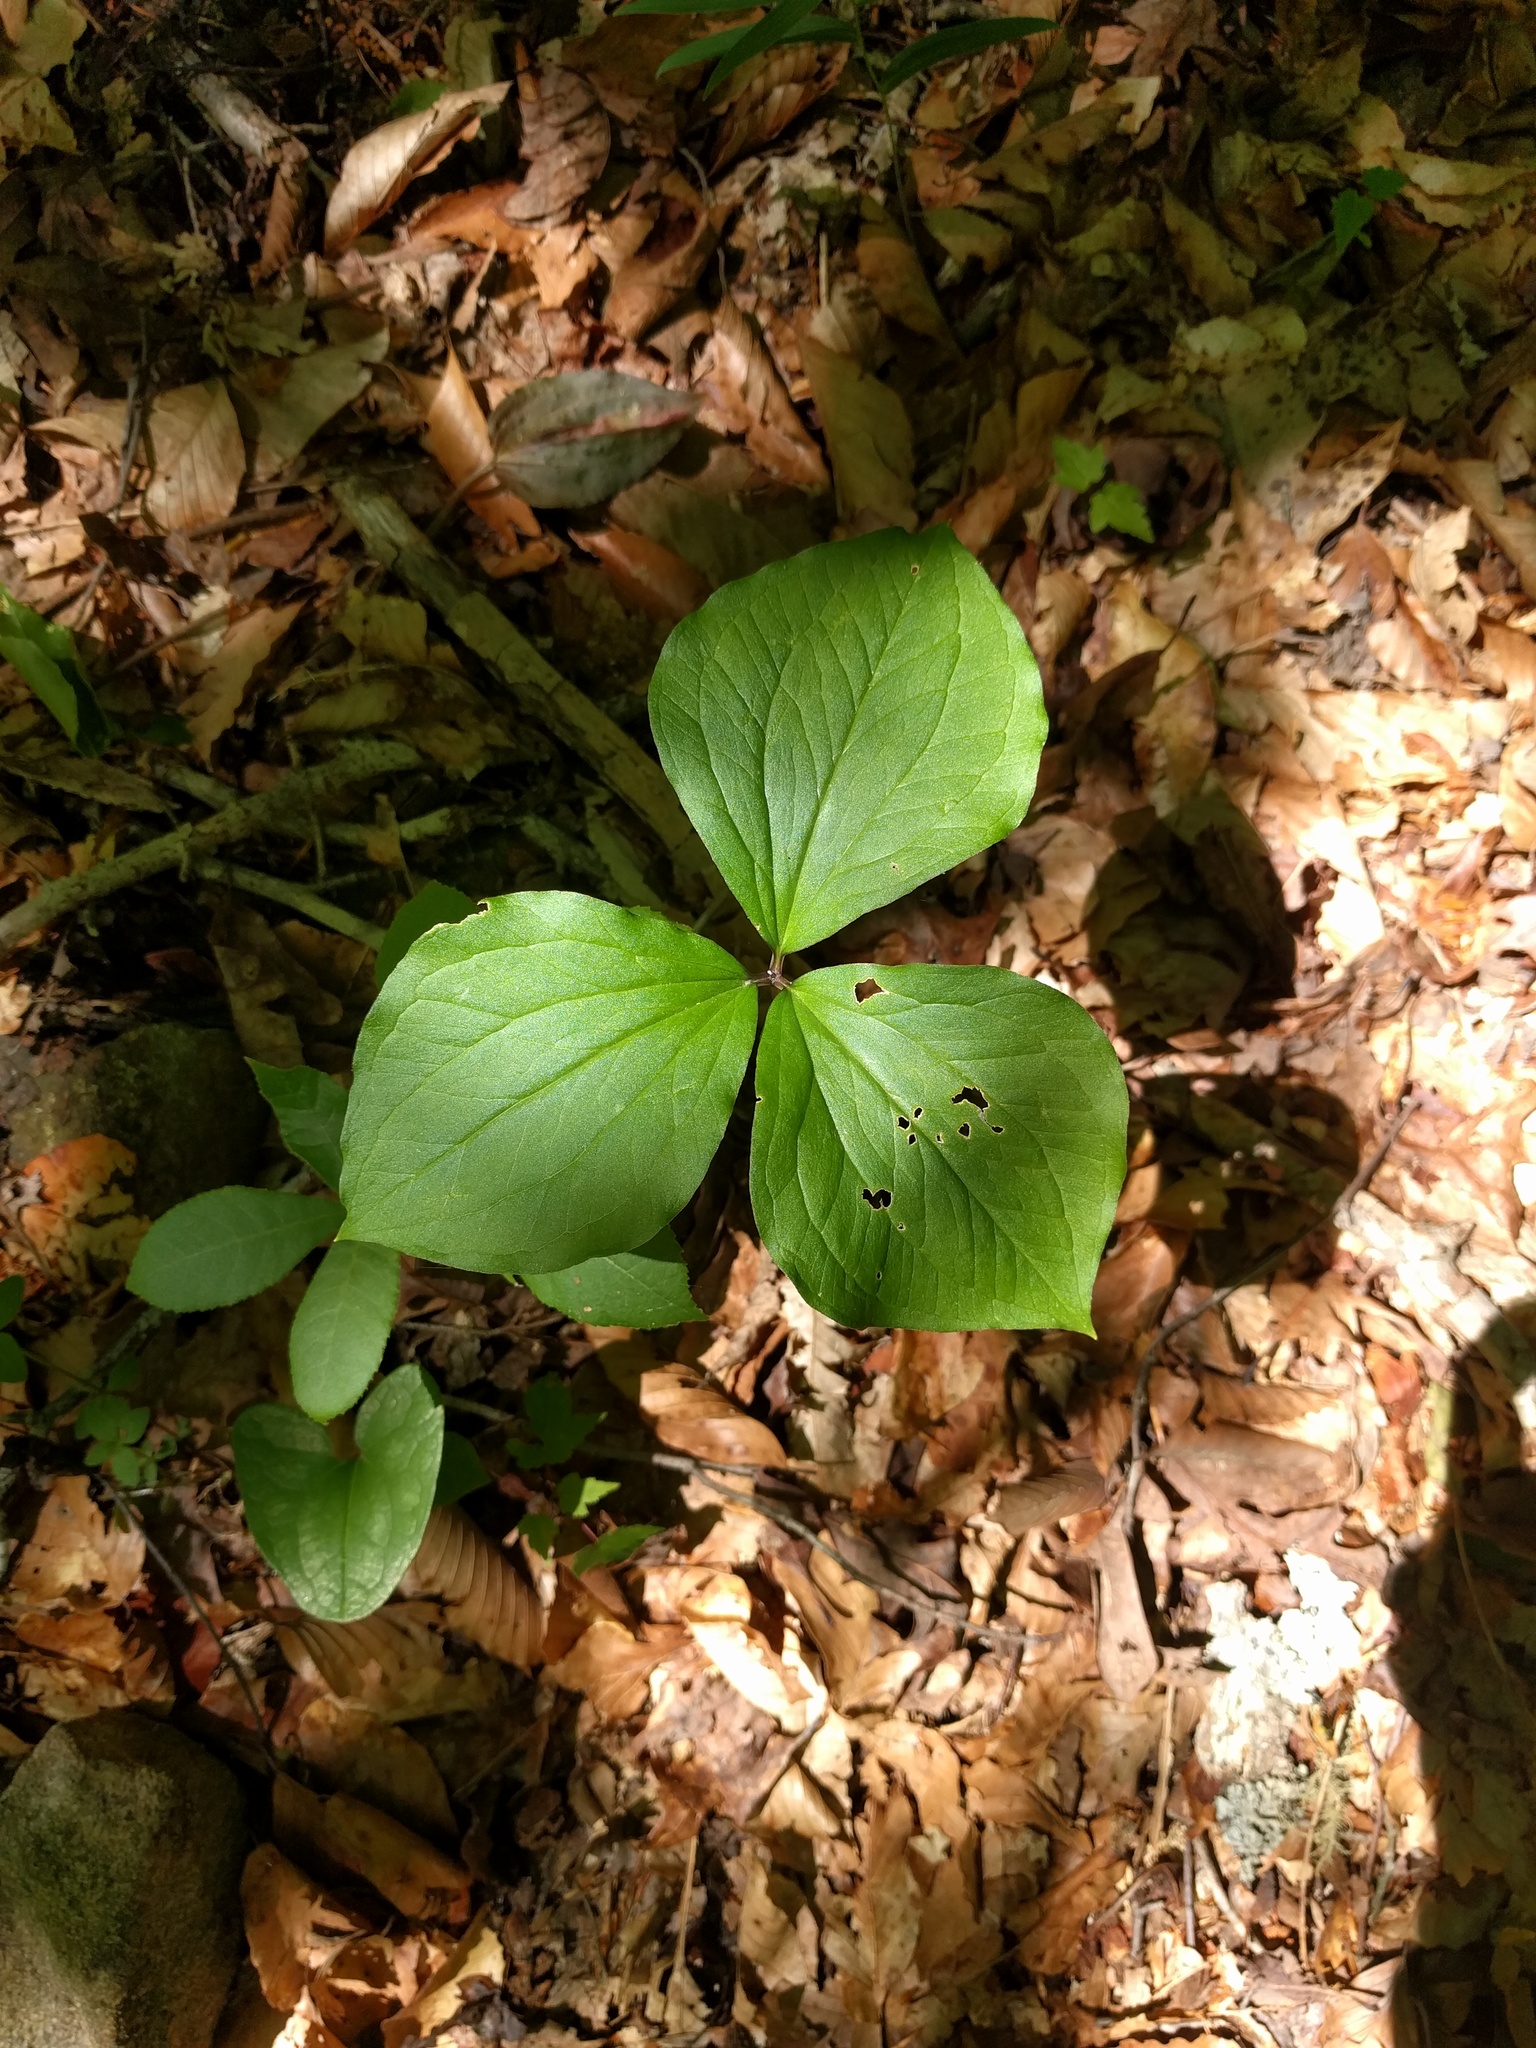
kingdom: Plantae
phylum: Tracheophyta
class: Liliopsida
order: Liliales
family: Melanthiaceae
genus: Trillium
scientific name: Trillium catesbaei
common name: Bashful trillium
